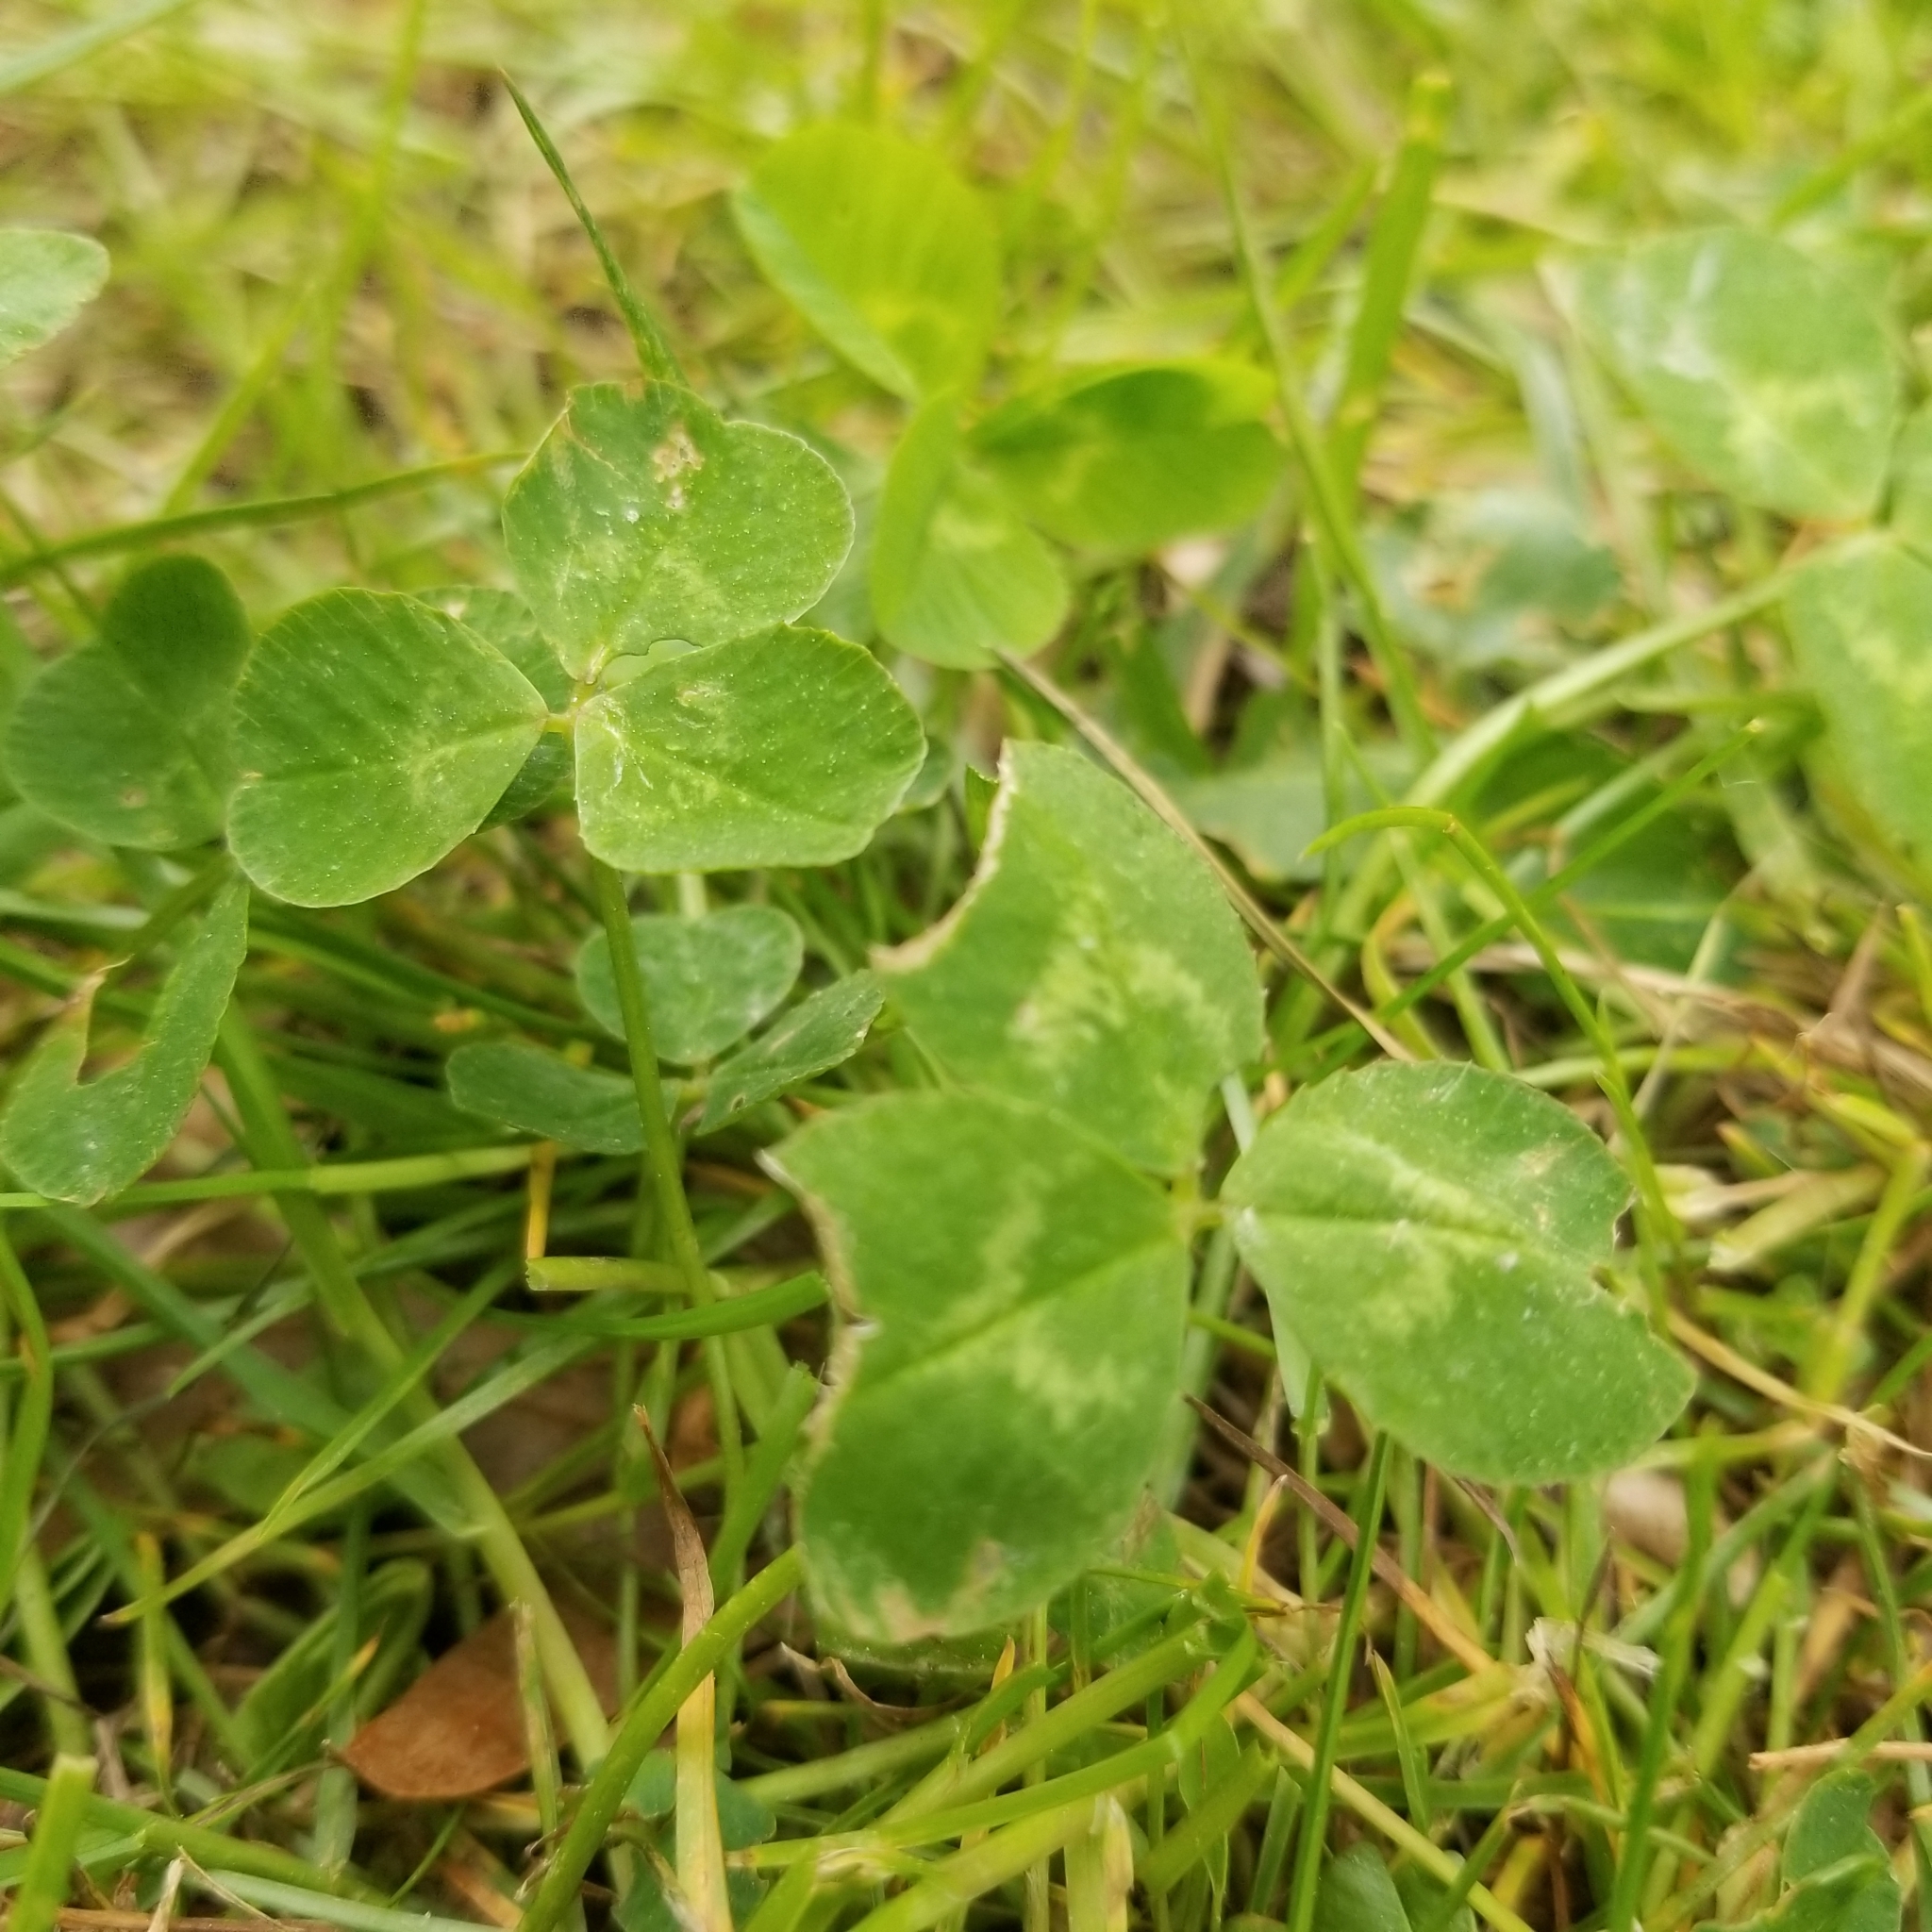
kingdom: Plantae
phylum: Tracheophyta
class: Magnoliopsida
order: Fabales
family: Fabaceae
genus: Trifolium
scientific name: Trifolium repens
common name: White clover
